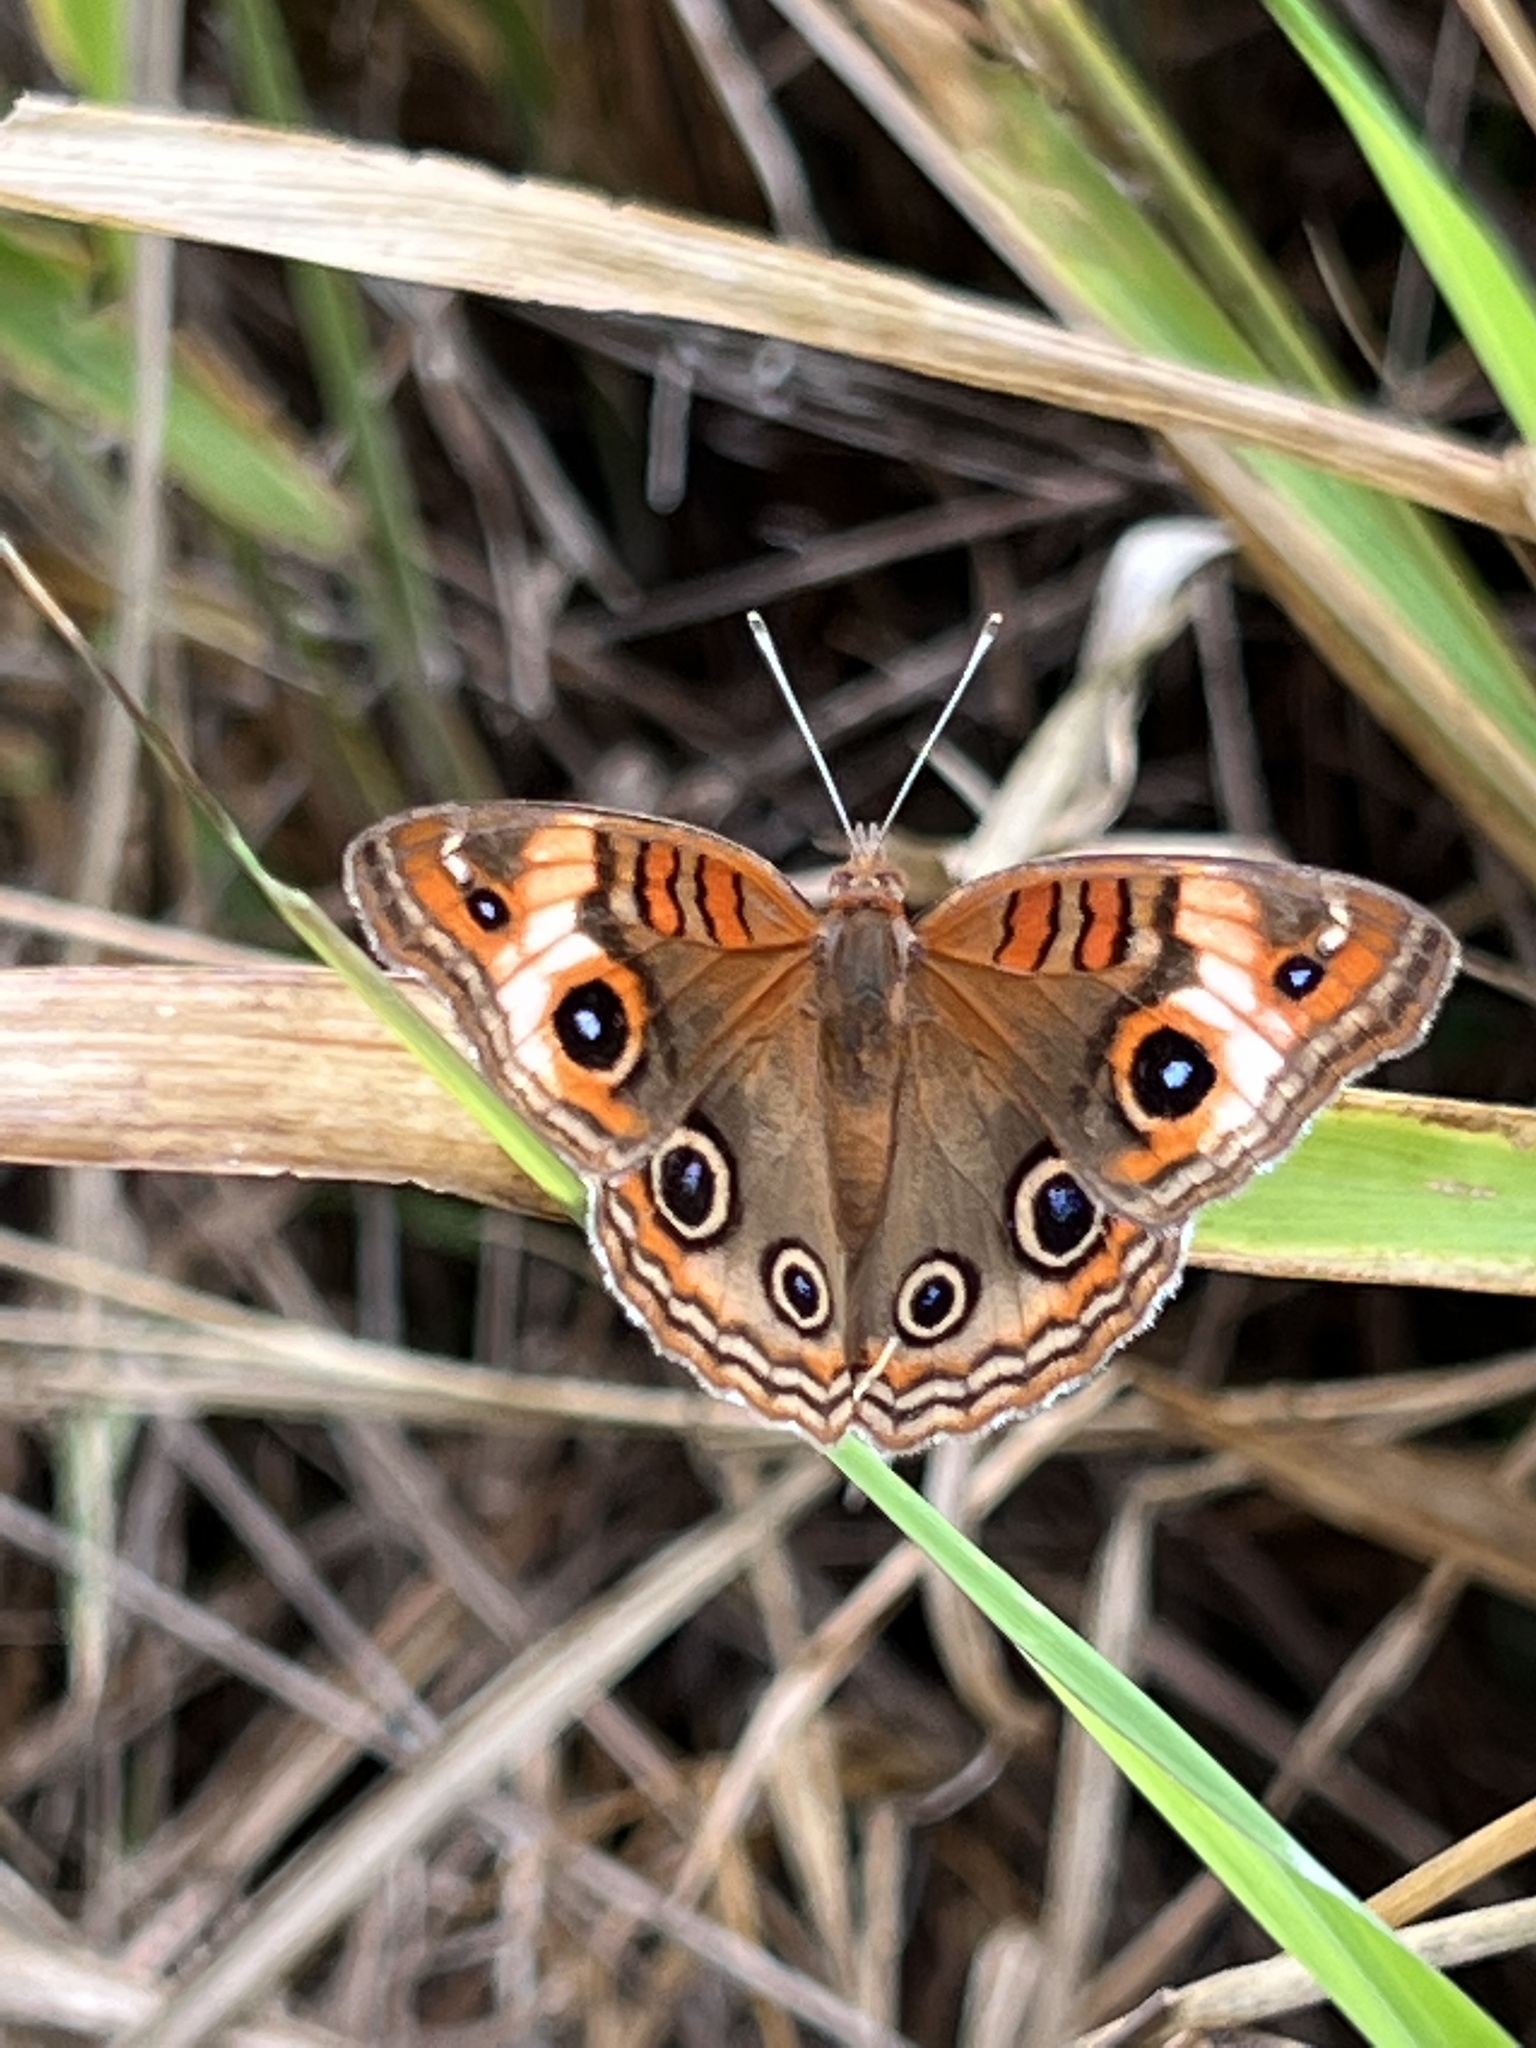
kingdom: Animalia
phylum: Arthropoda
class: Insecta
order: Lepidoptera
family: Nymphalidae
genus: Junonia
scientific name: Junonia lavinia
